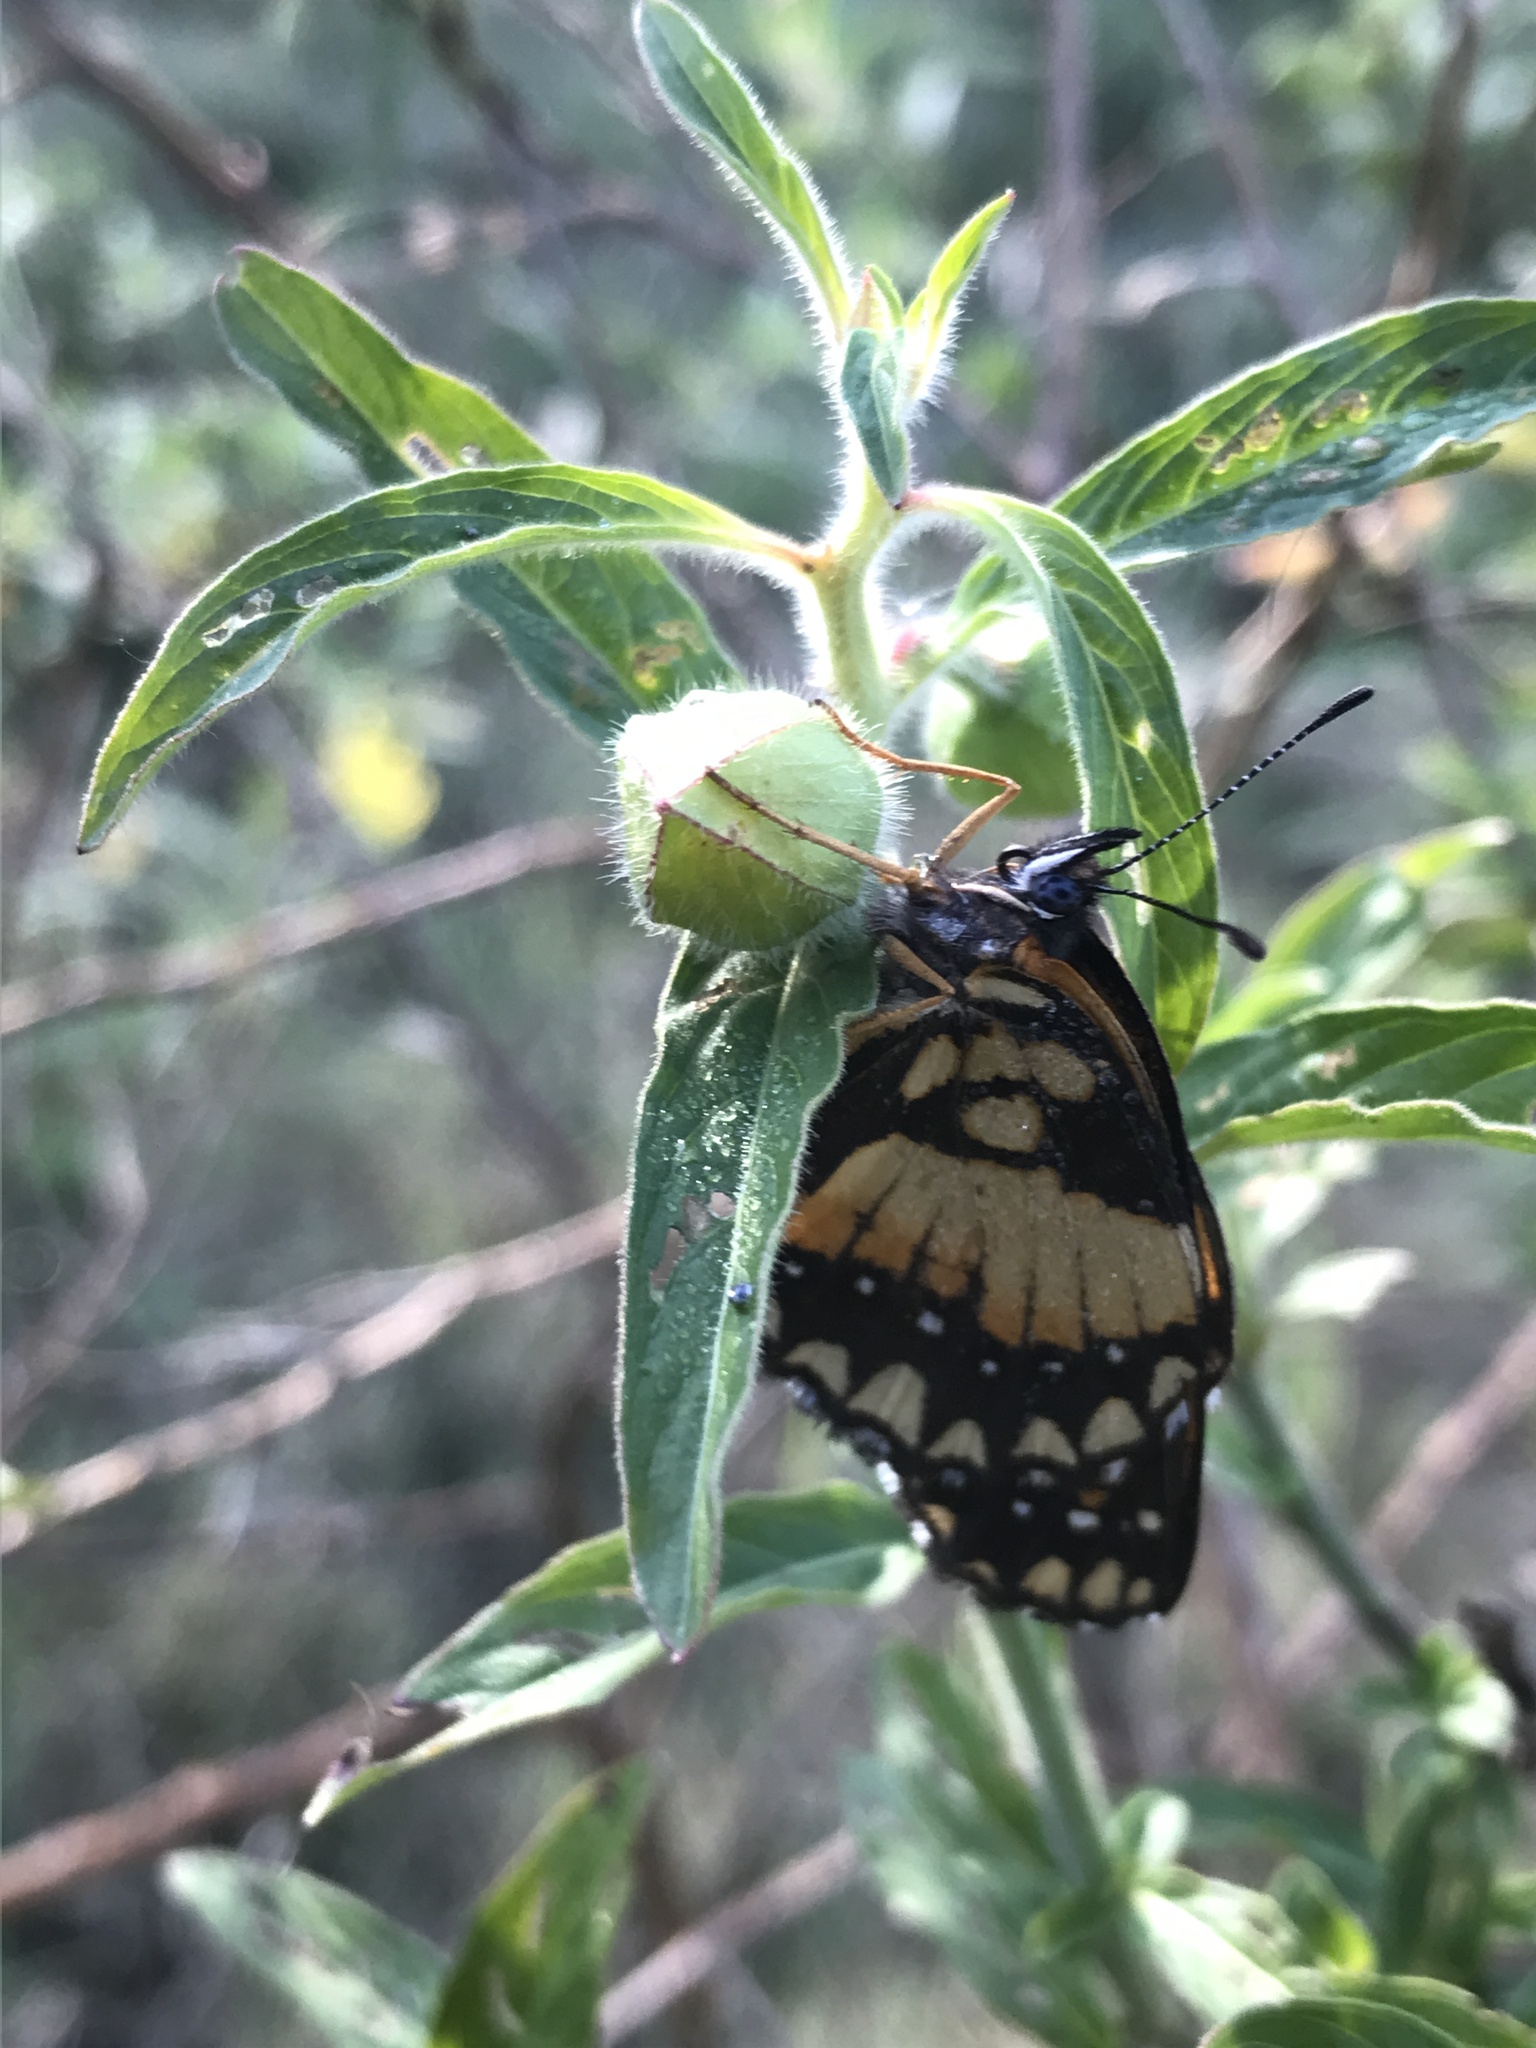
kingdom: Animalia
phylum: Arthropoda
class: Insecta
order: Lepidoptera
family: Nymphalidae
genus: Chlosyne
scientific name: Chlosyne lacinia
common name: Bordered patch
